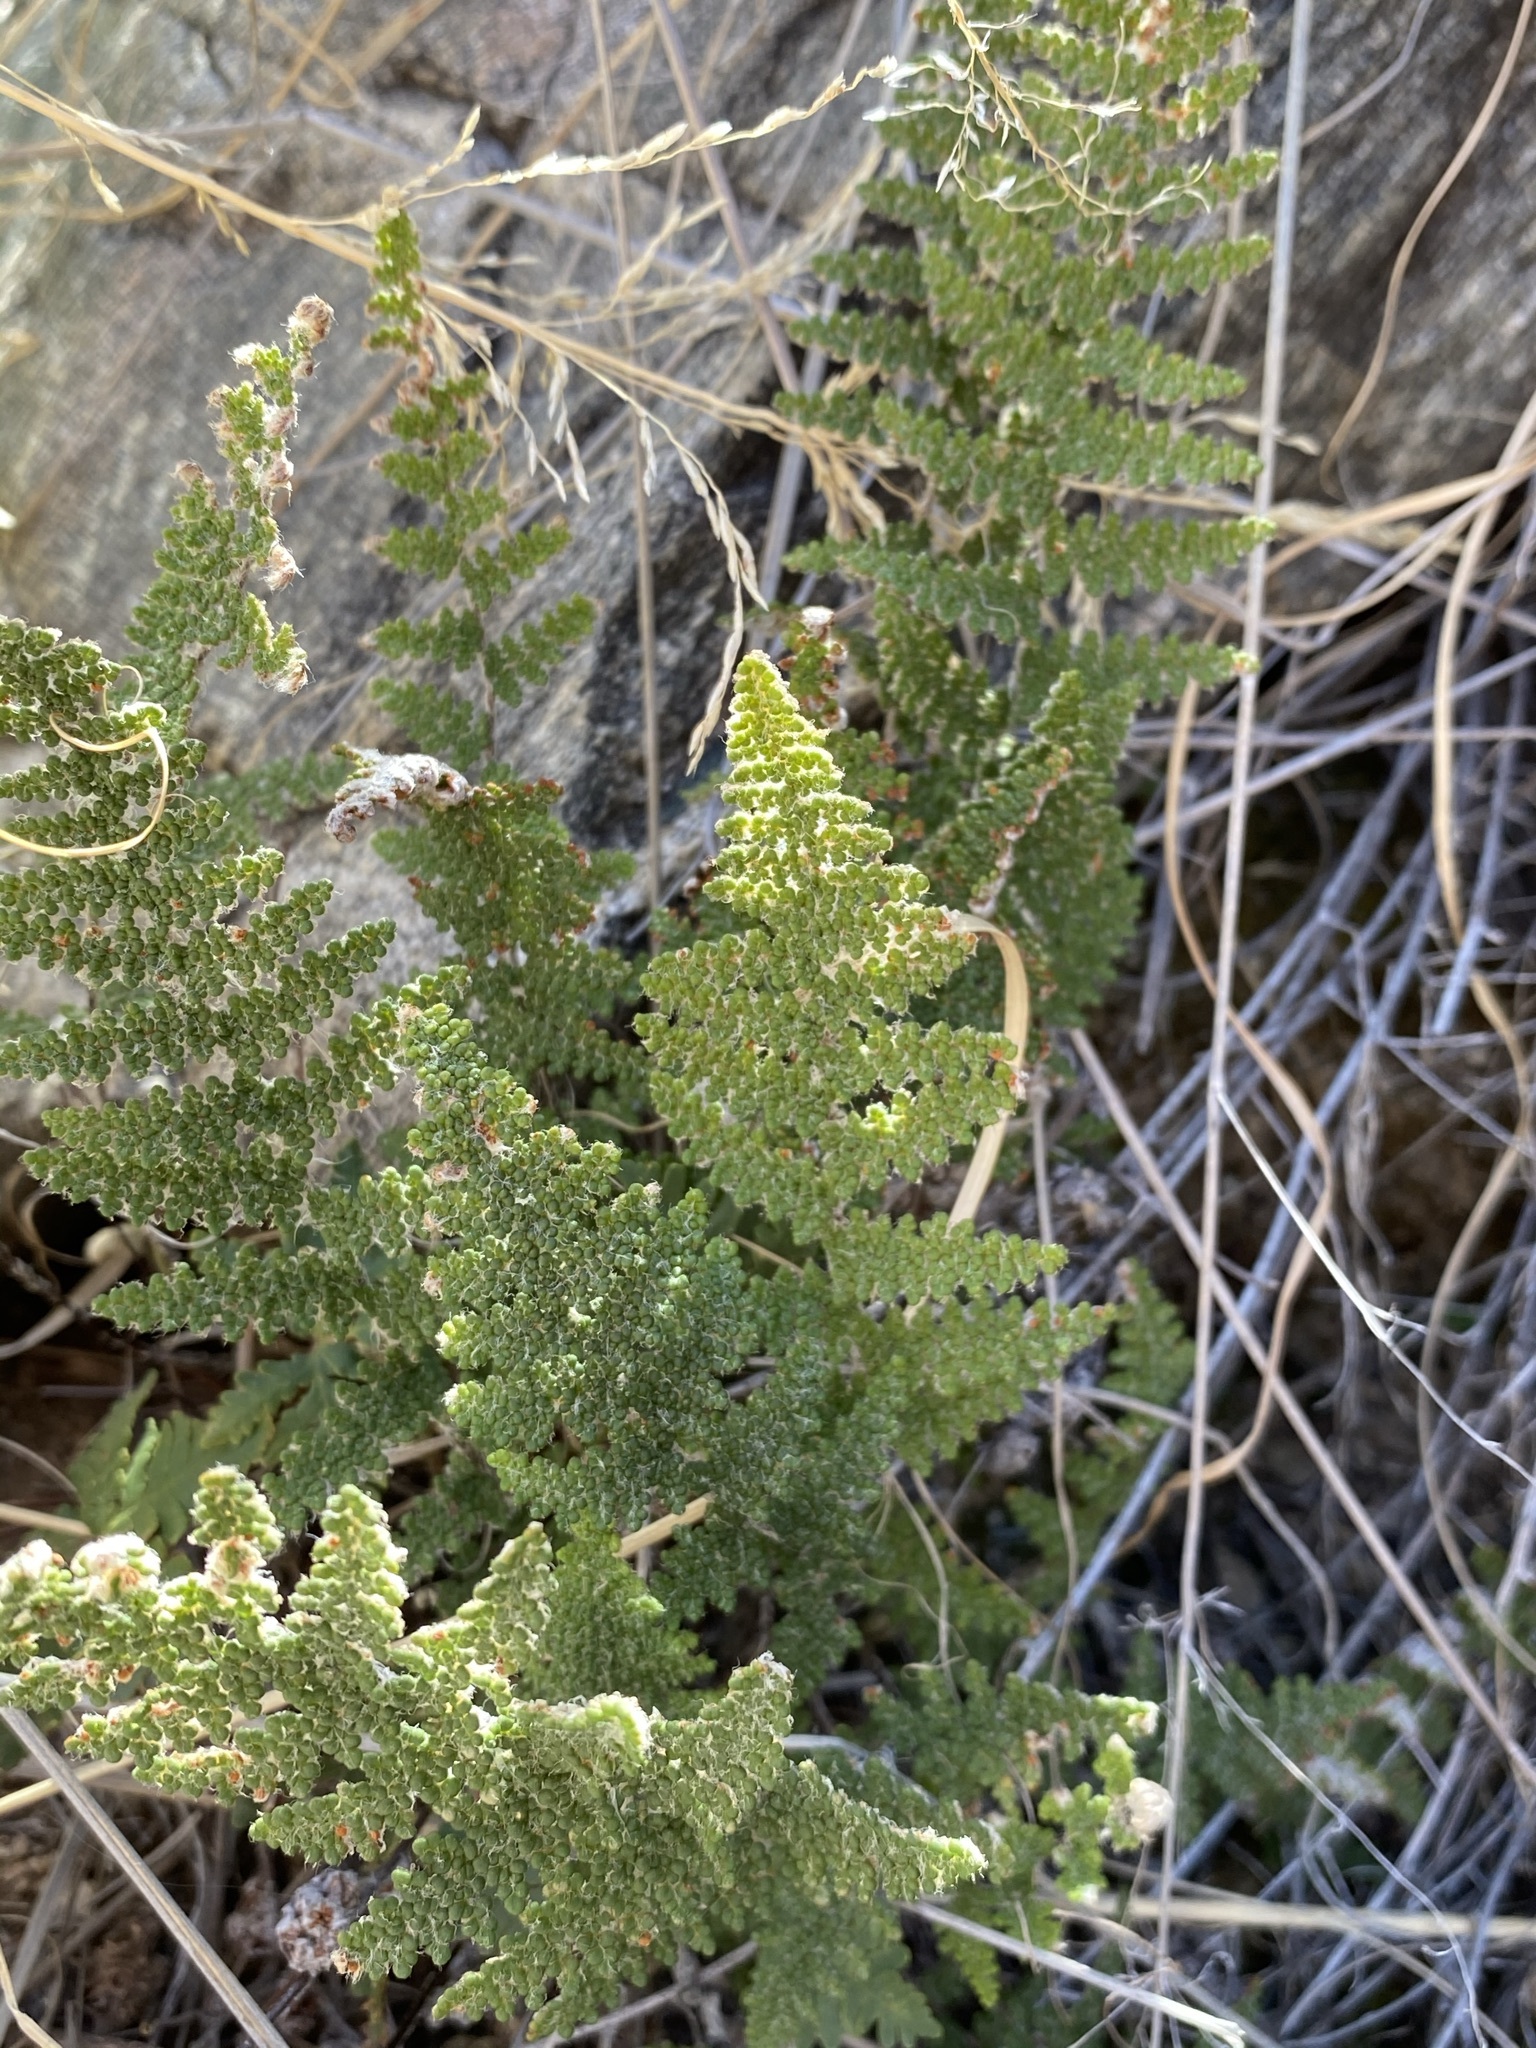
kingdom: Plantae
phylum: Tracheophyta
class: Polypodiopsida
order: Polypodiales
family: Pteridaceae
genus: Myriopteris
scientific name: Myriopteris covillei
